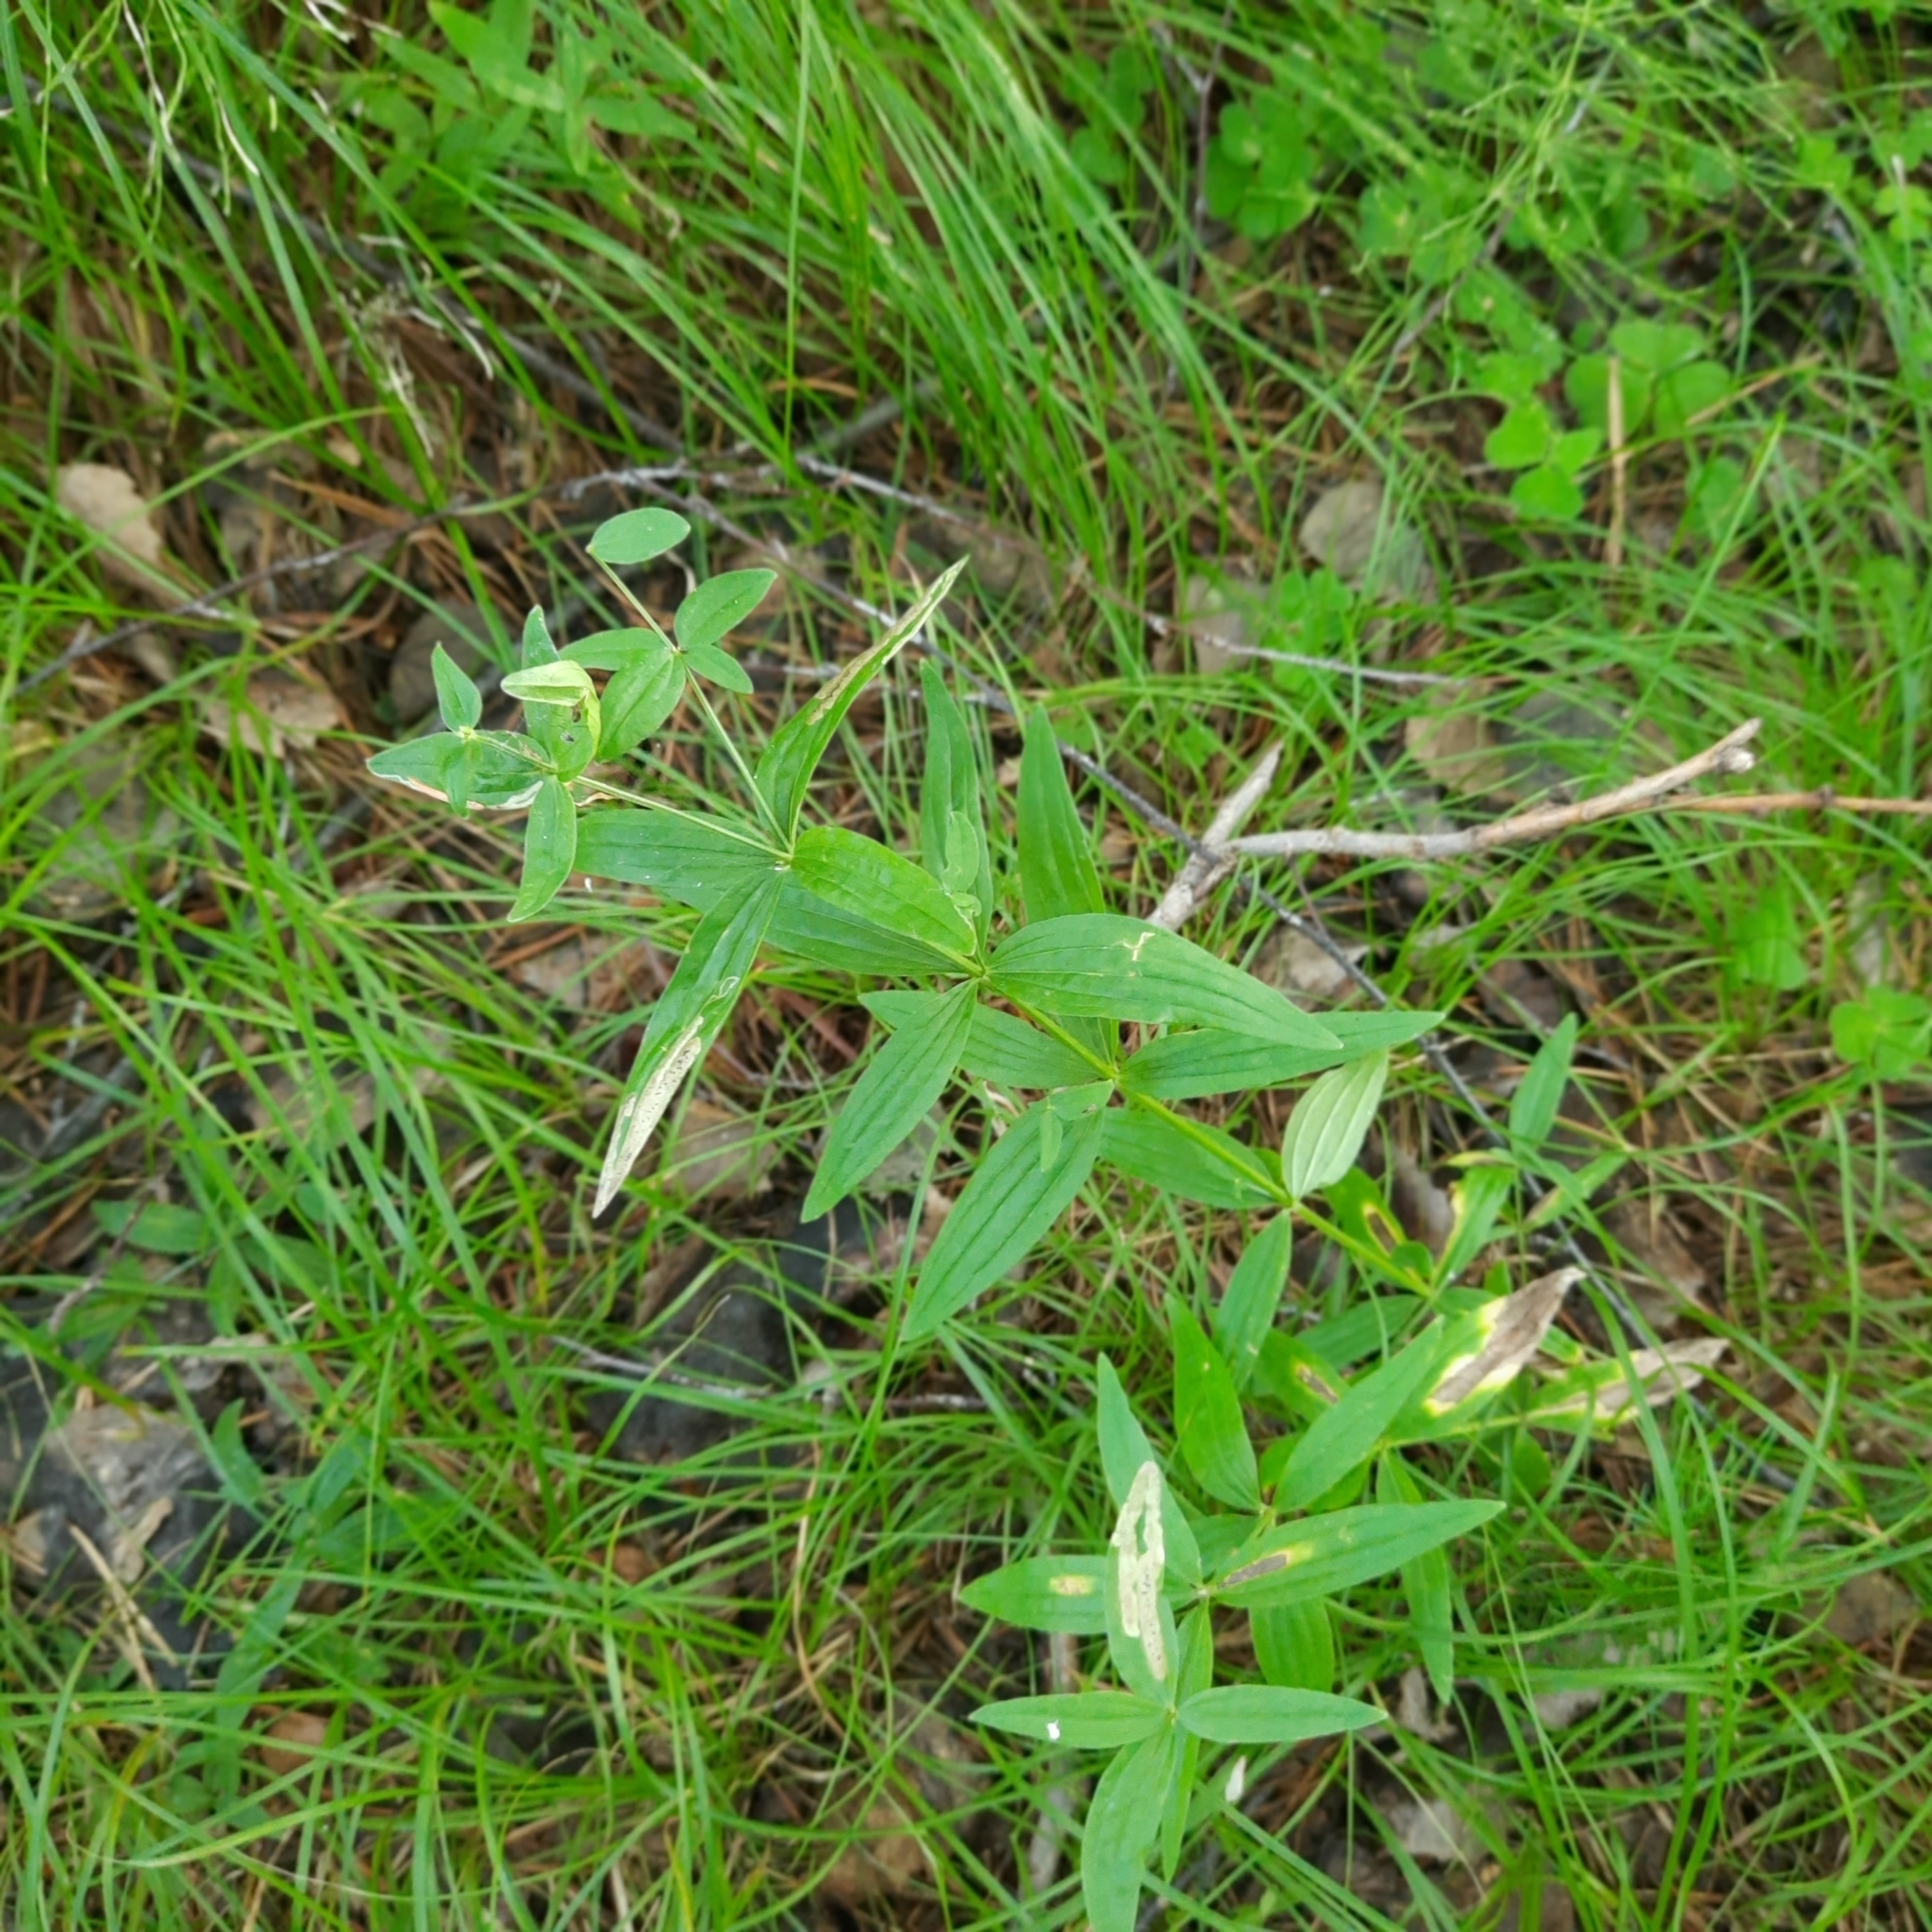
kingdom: Plantae
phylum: Tracheophyta
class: Magnoliopsida
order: Gentianales
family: Rubiaceae
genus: Galium
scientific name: Galium boreale
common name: Northern bedstraw
